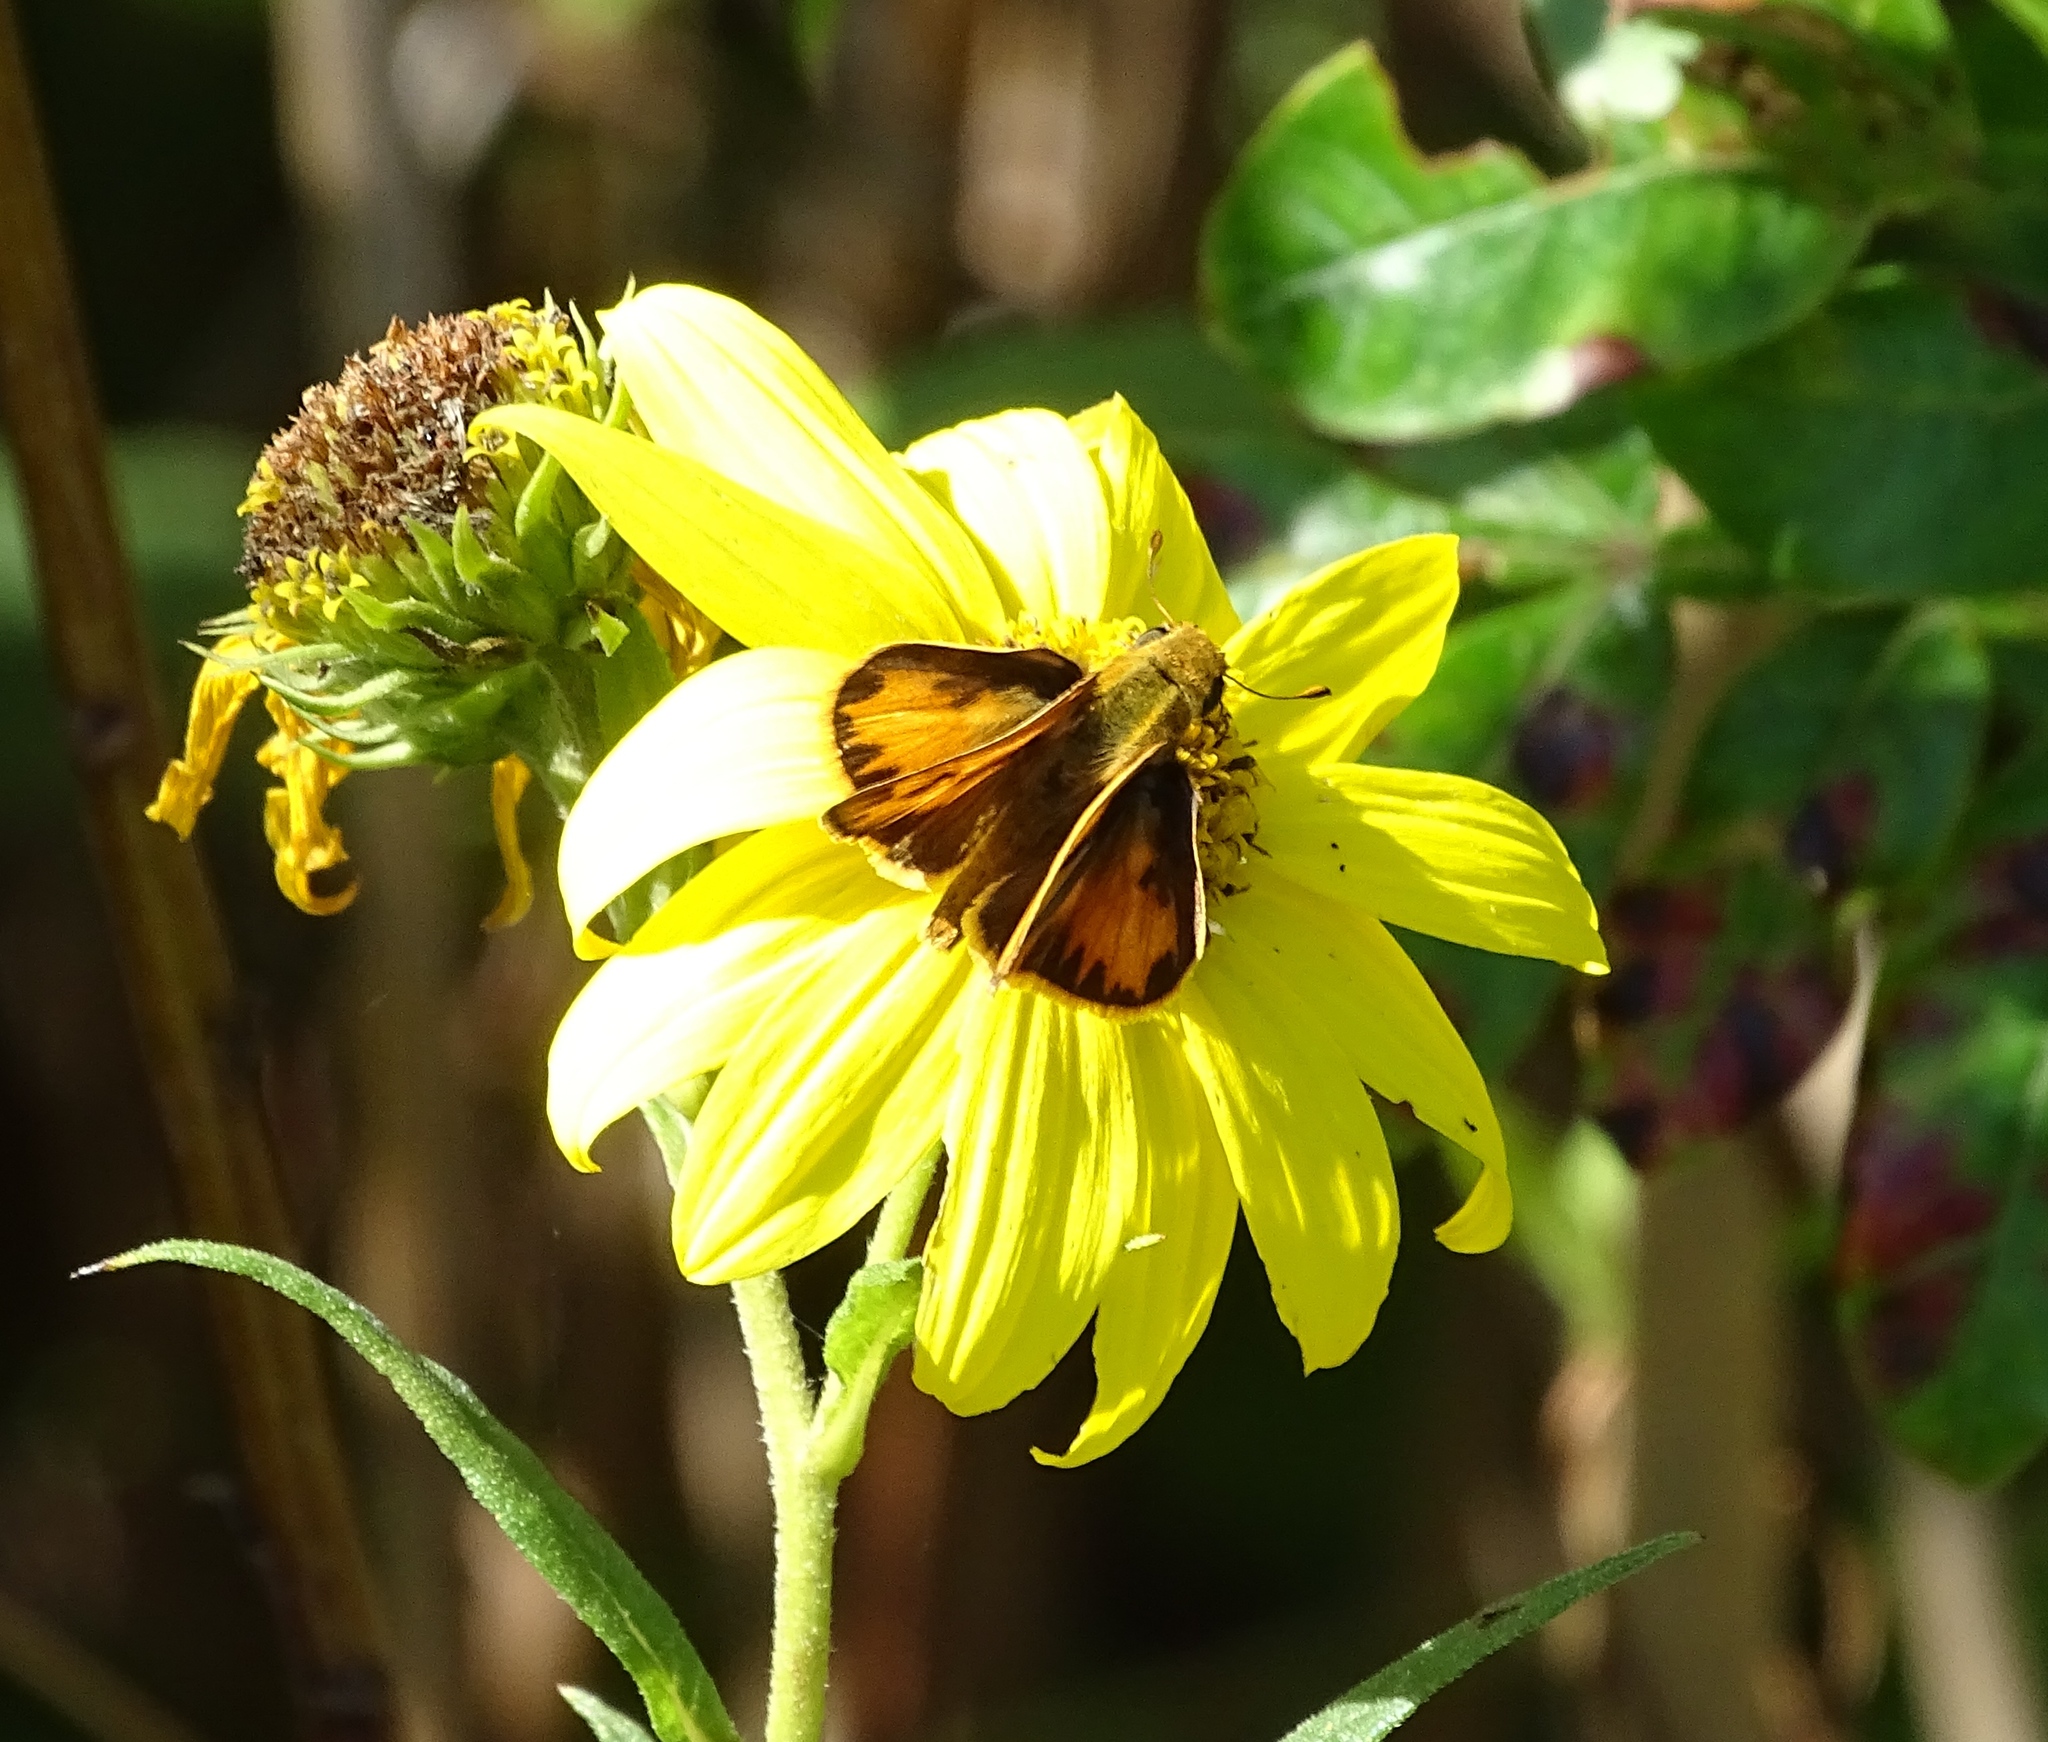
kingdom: Animalia
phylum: Arthropoda
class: Insecta
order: Lepidoptera
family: Hesperiidae
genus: Hylephila
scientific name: Hylephila phyleus
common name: Fiery skipper
